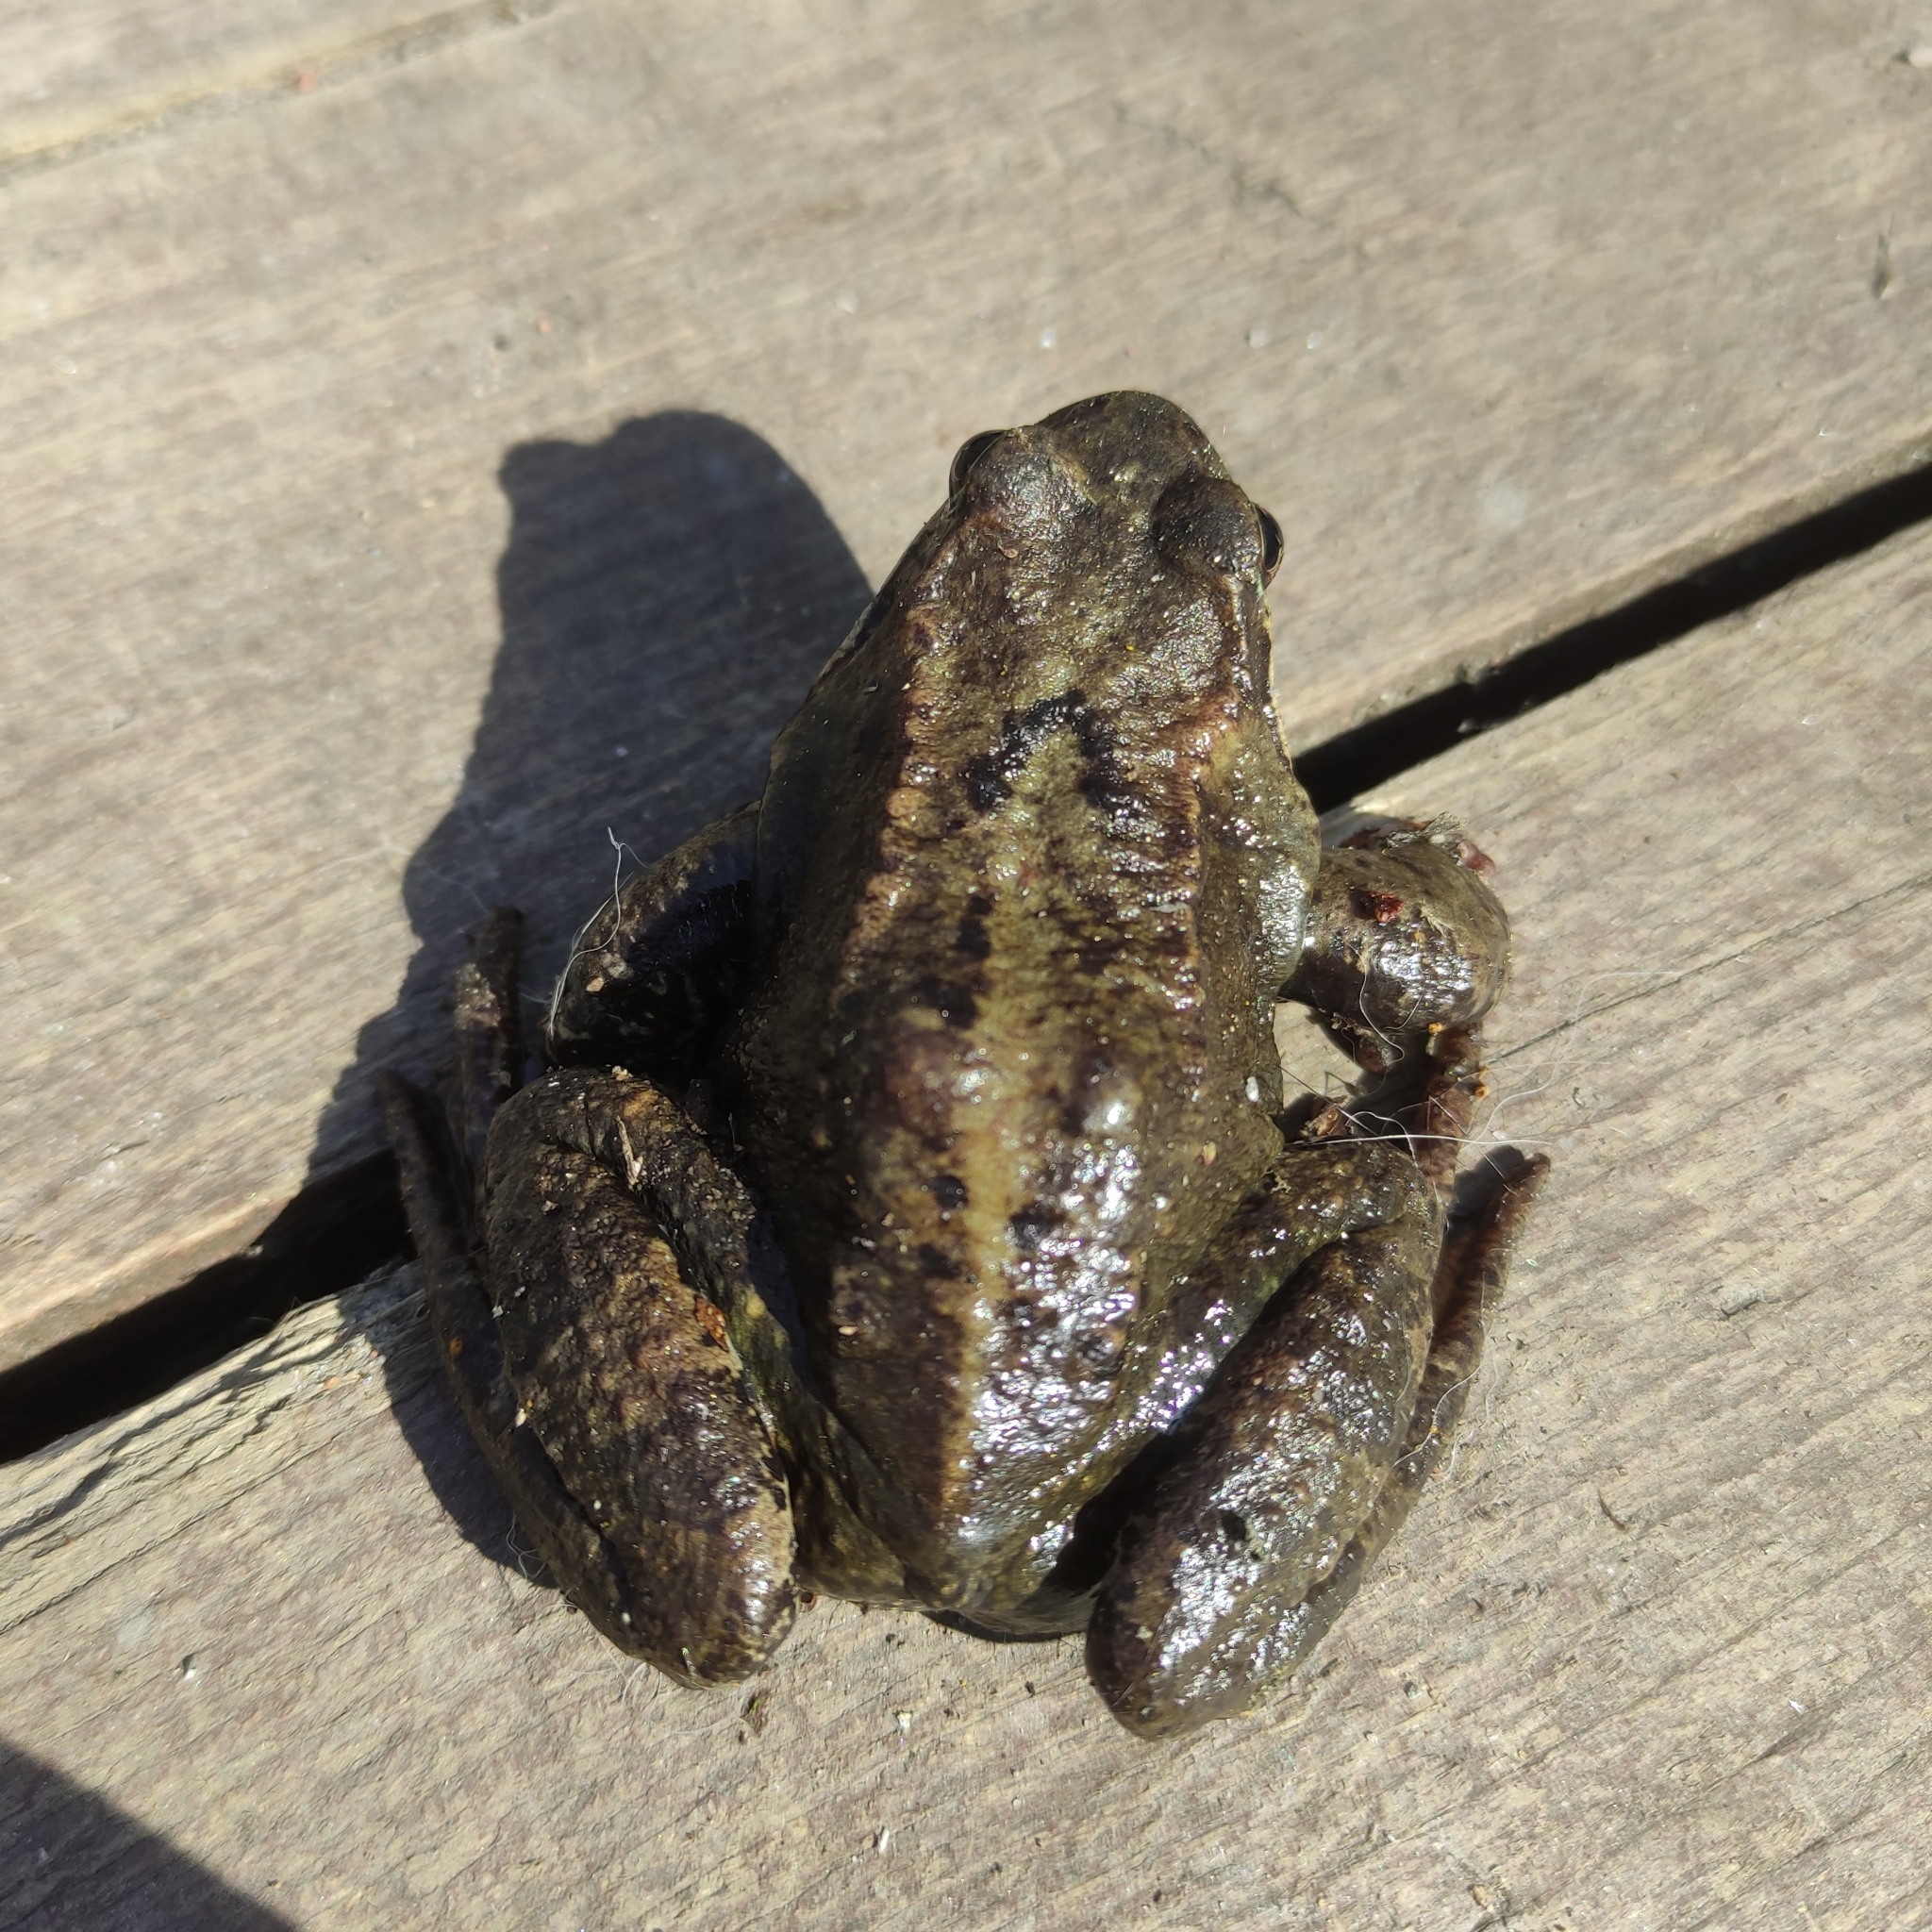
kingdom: Animalia
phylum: Chordata
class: Amphibia
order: Anura
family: Ranidae
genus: Rana
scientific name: Rana temporaria
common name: Common frog
